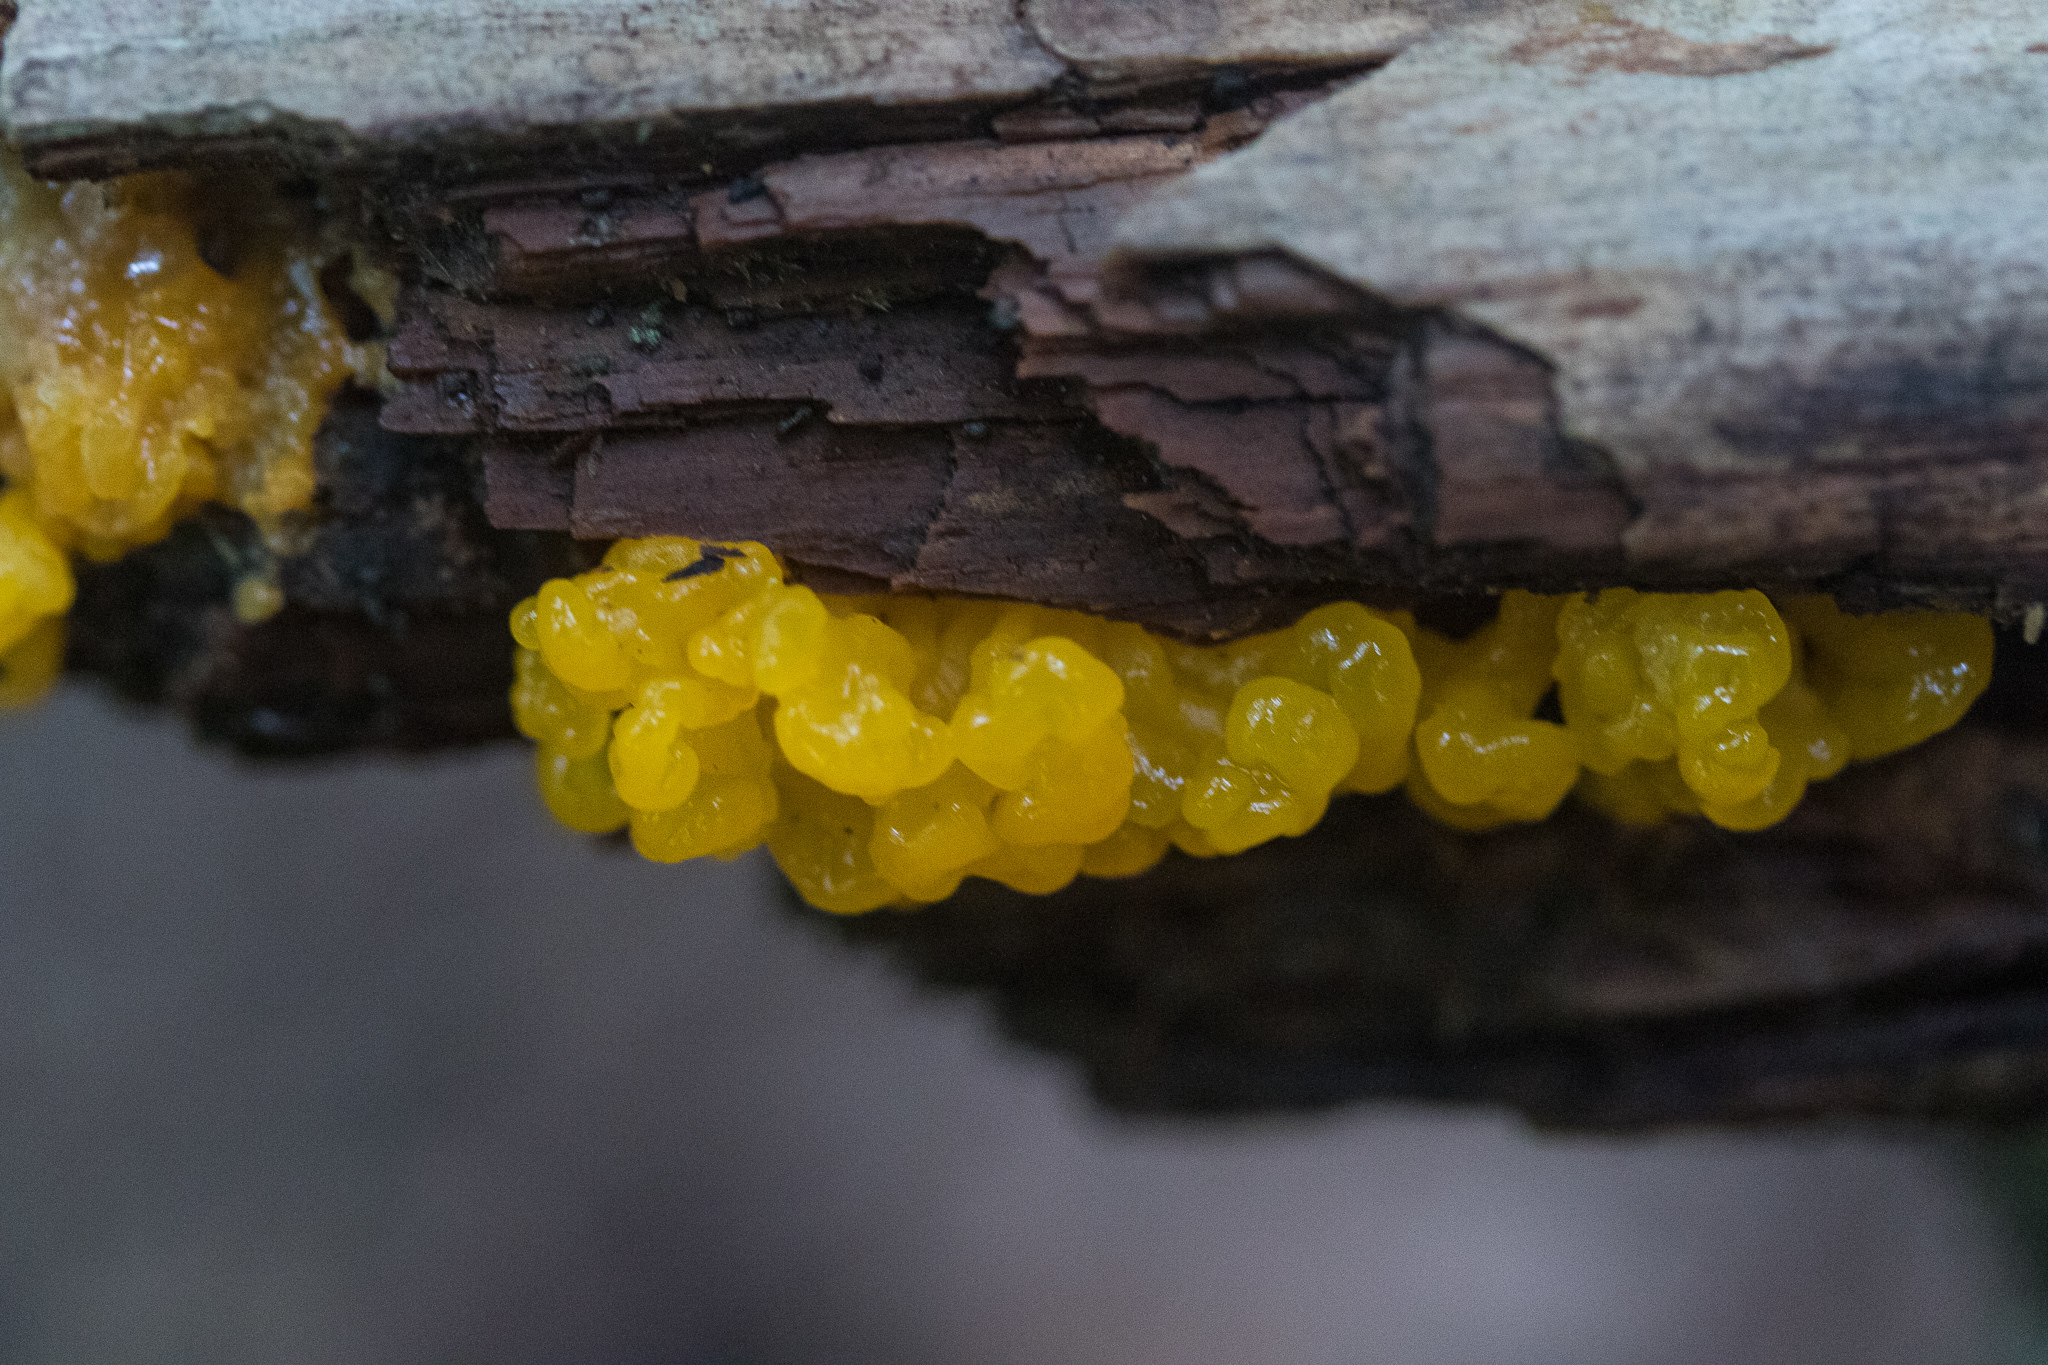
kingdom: Fungi
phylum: Basidiomycota
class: Dacrymycetes
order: Dacrymycetales
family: Dacrymycetaceae
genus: Dacrymyces
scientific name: Dacrymyces spathularius
